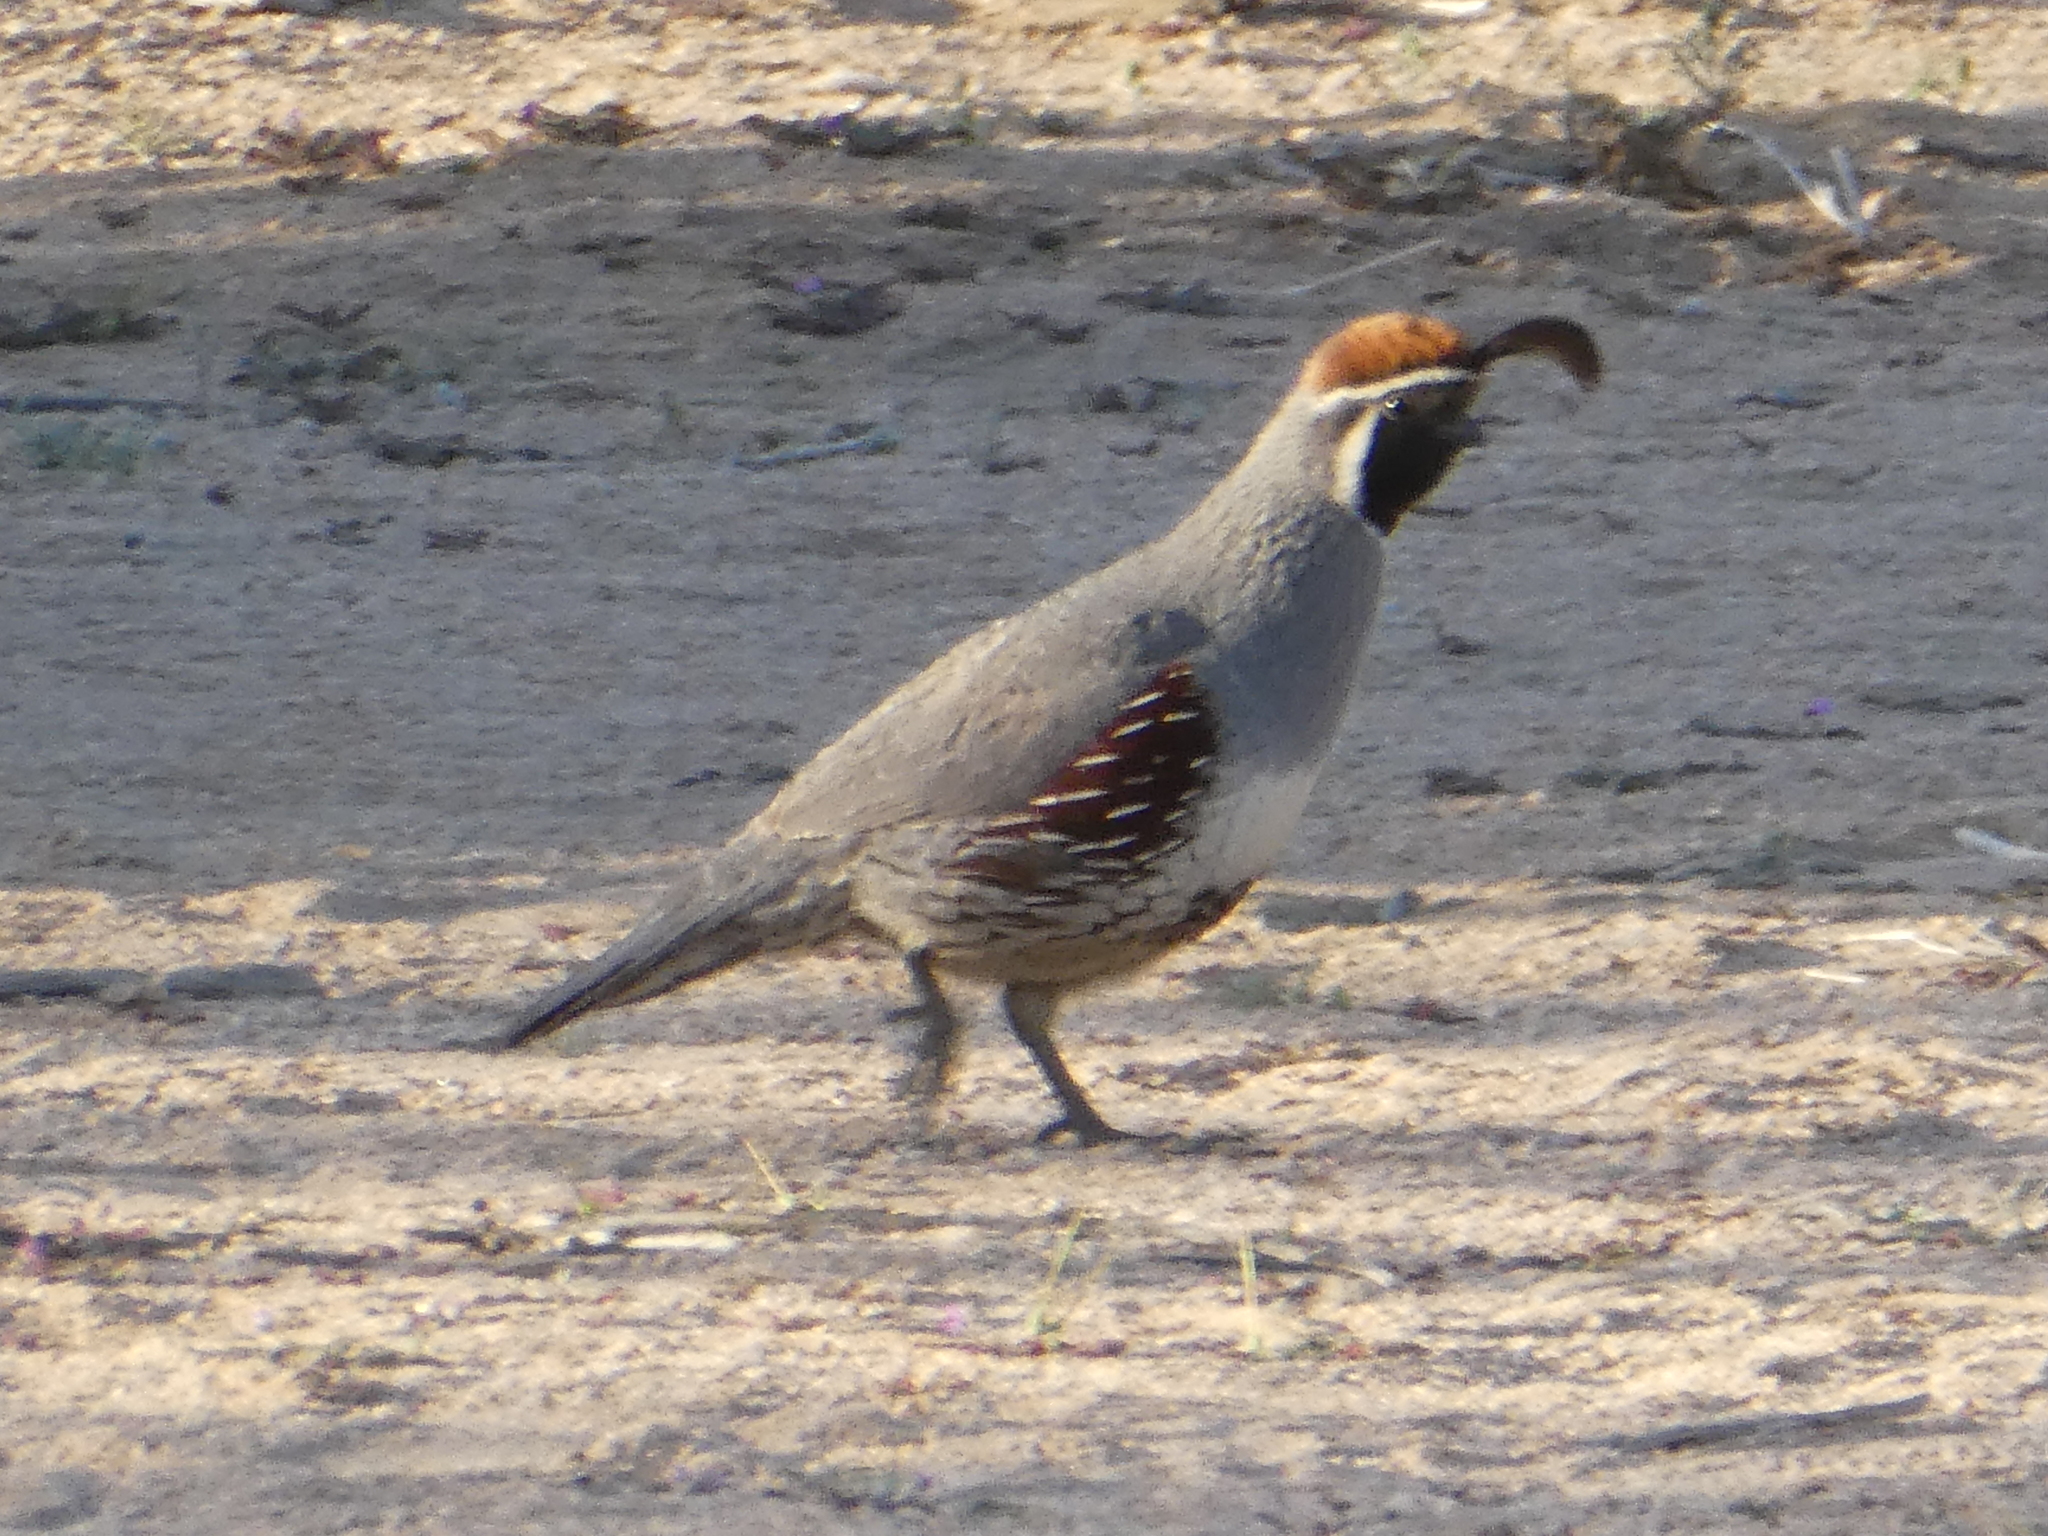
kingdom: Animalia
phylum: Chordata
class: Aves
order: Galliformes
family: Odontophoridae
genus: Callipepla
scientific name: Callipepla gambelii
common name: Gambel's quail
